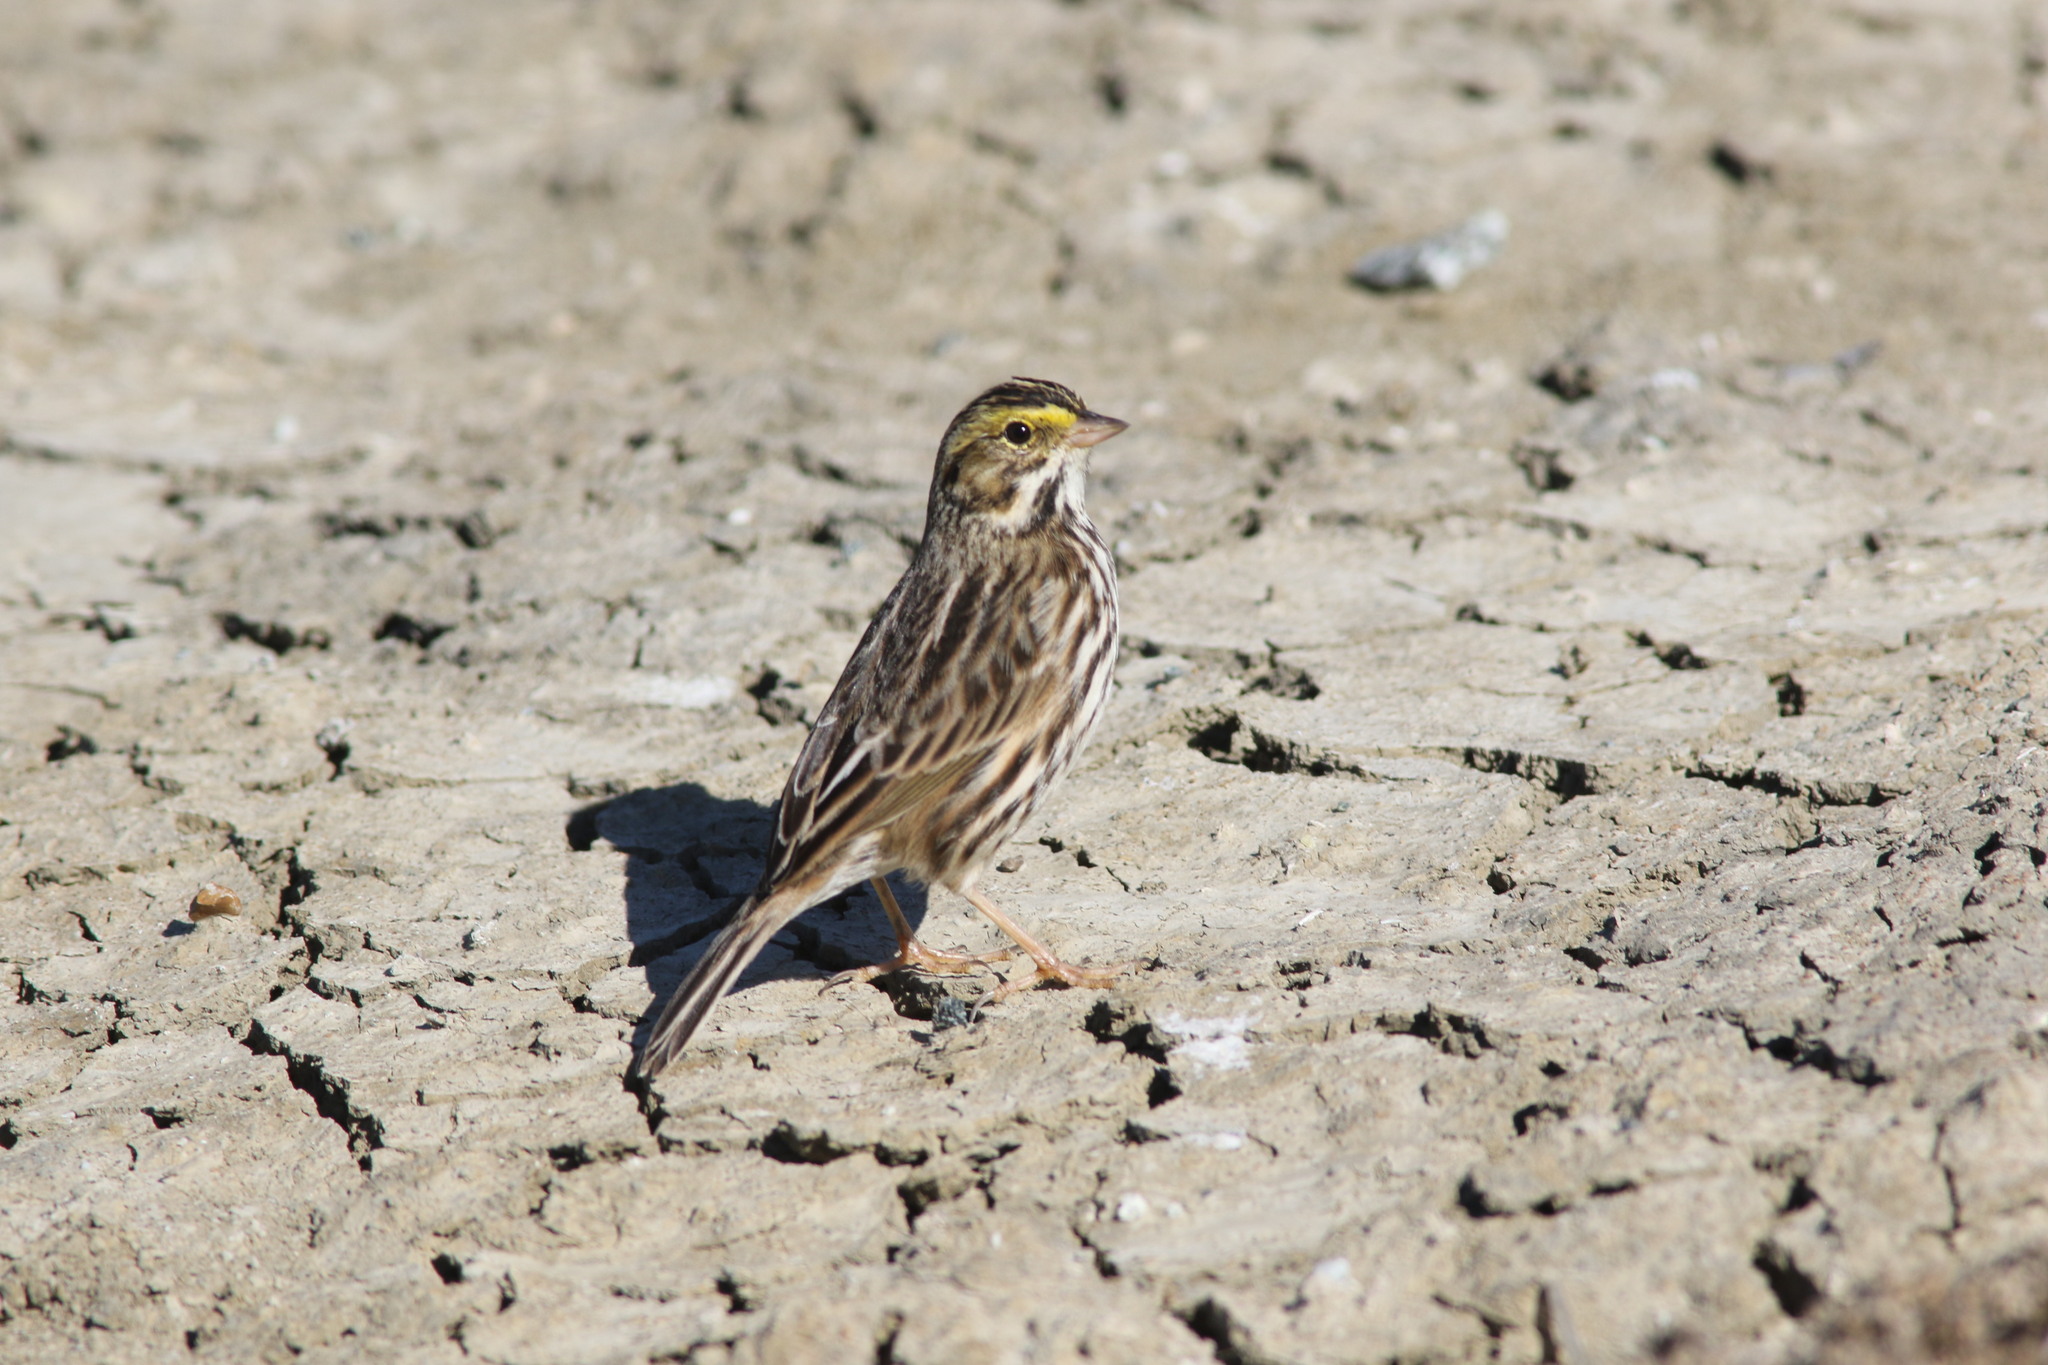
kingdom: Animalia
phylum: Chordata
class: Aves
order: Passeriformes
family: Passerellidae
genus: Passerculus
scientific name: Passerculus sandwichensis
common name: Savannah sparrow
